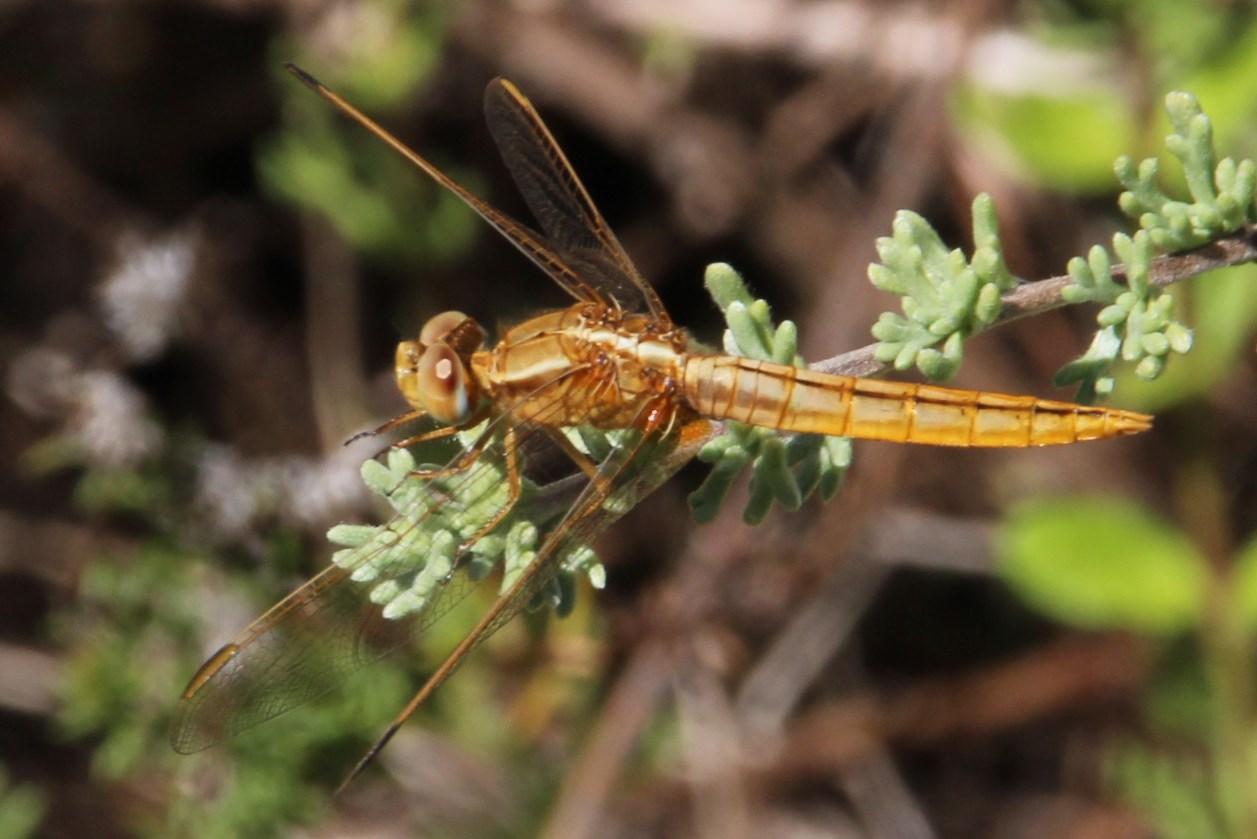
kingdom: Animalia
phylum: Arthropoda
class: Insecta
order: Odonata
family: Libellulidae
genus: Crocothemis
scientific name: Crocothemis erythraea
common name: Scarlet dragonfly
